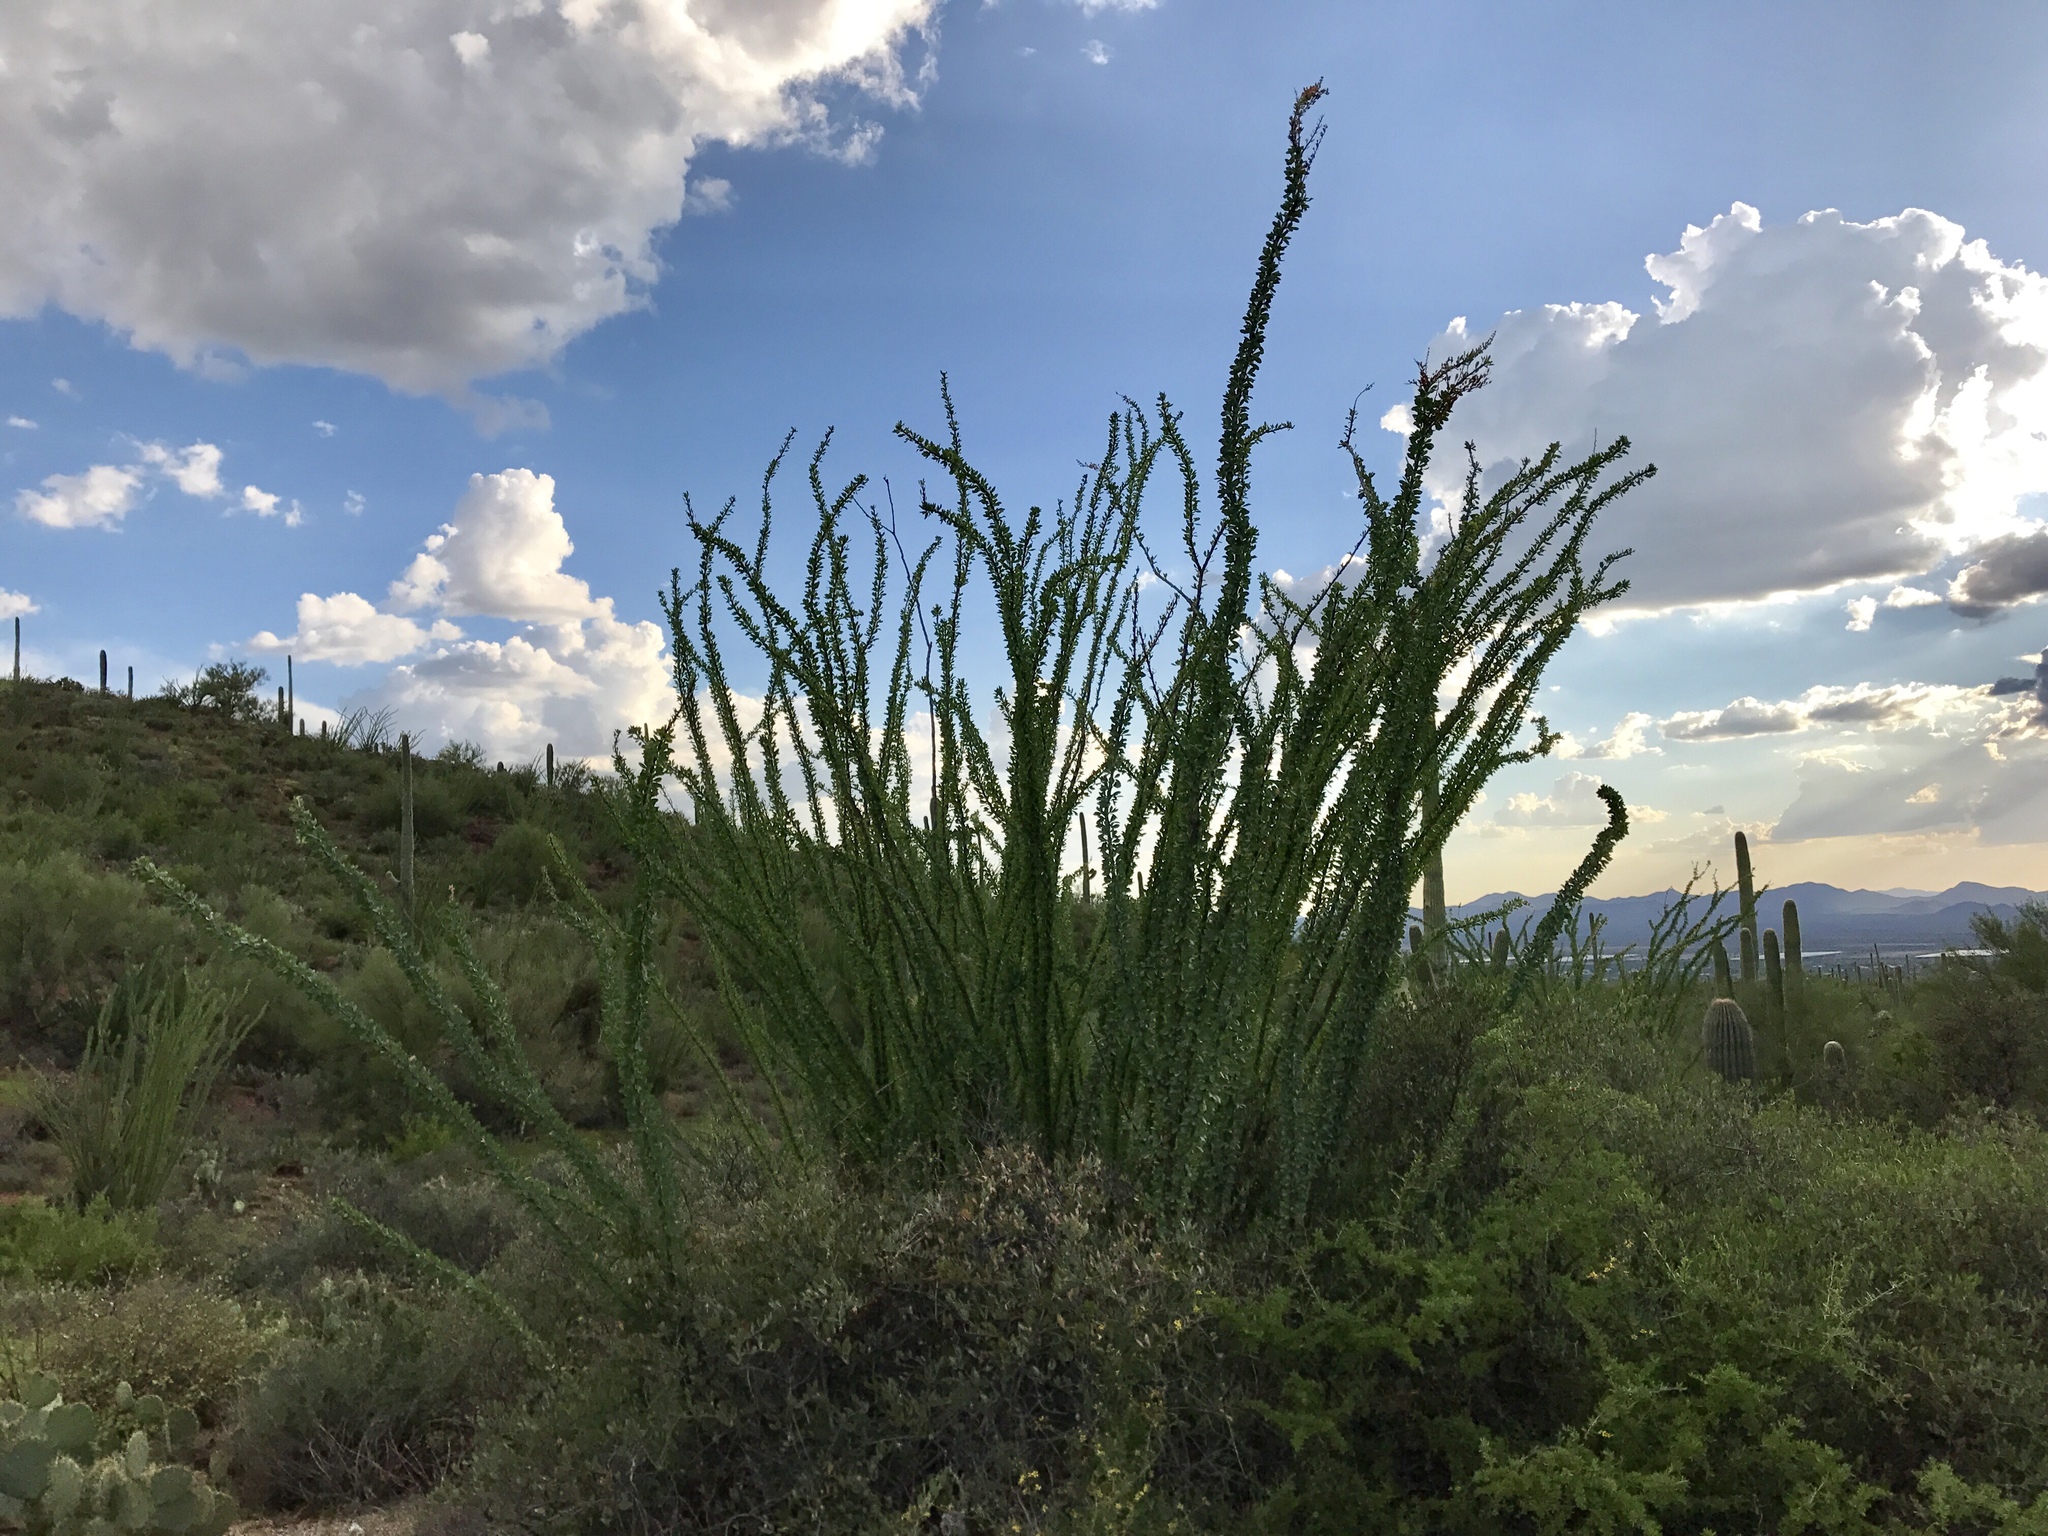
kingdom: Plantae
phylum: Tracheophyta
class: Magnoliopsida
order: Ericales
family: Fouquieriaceae
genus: Fouquieria
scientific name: Fouquieria splendens
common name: Vine-cactus
